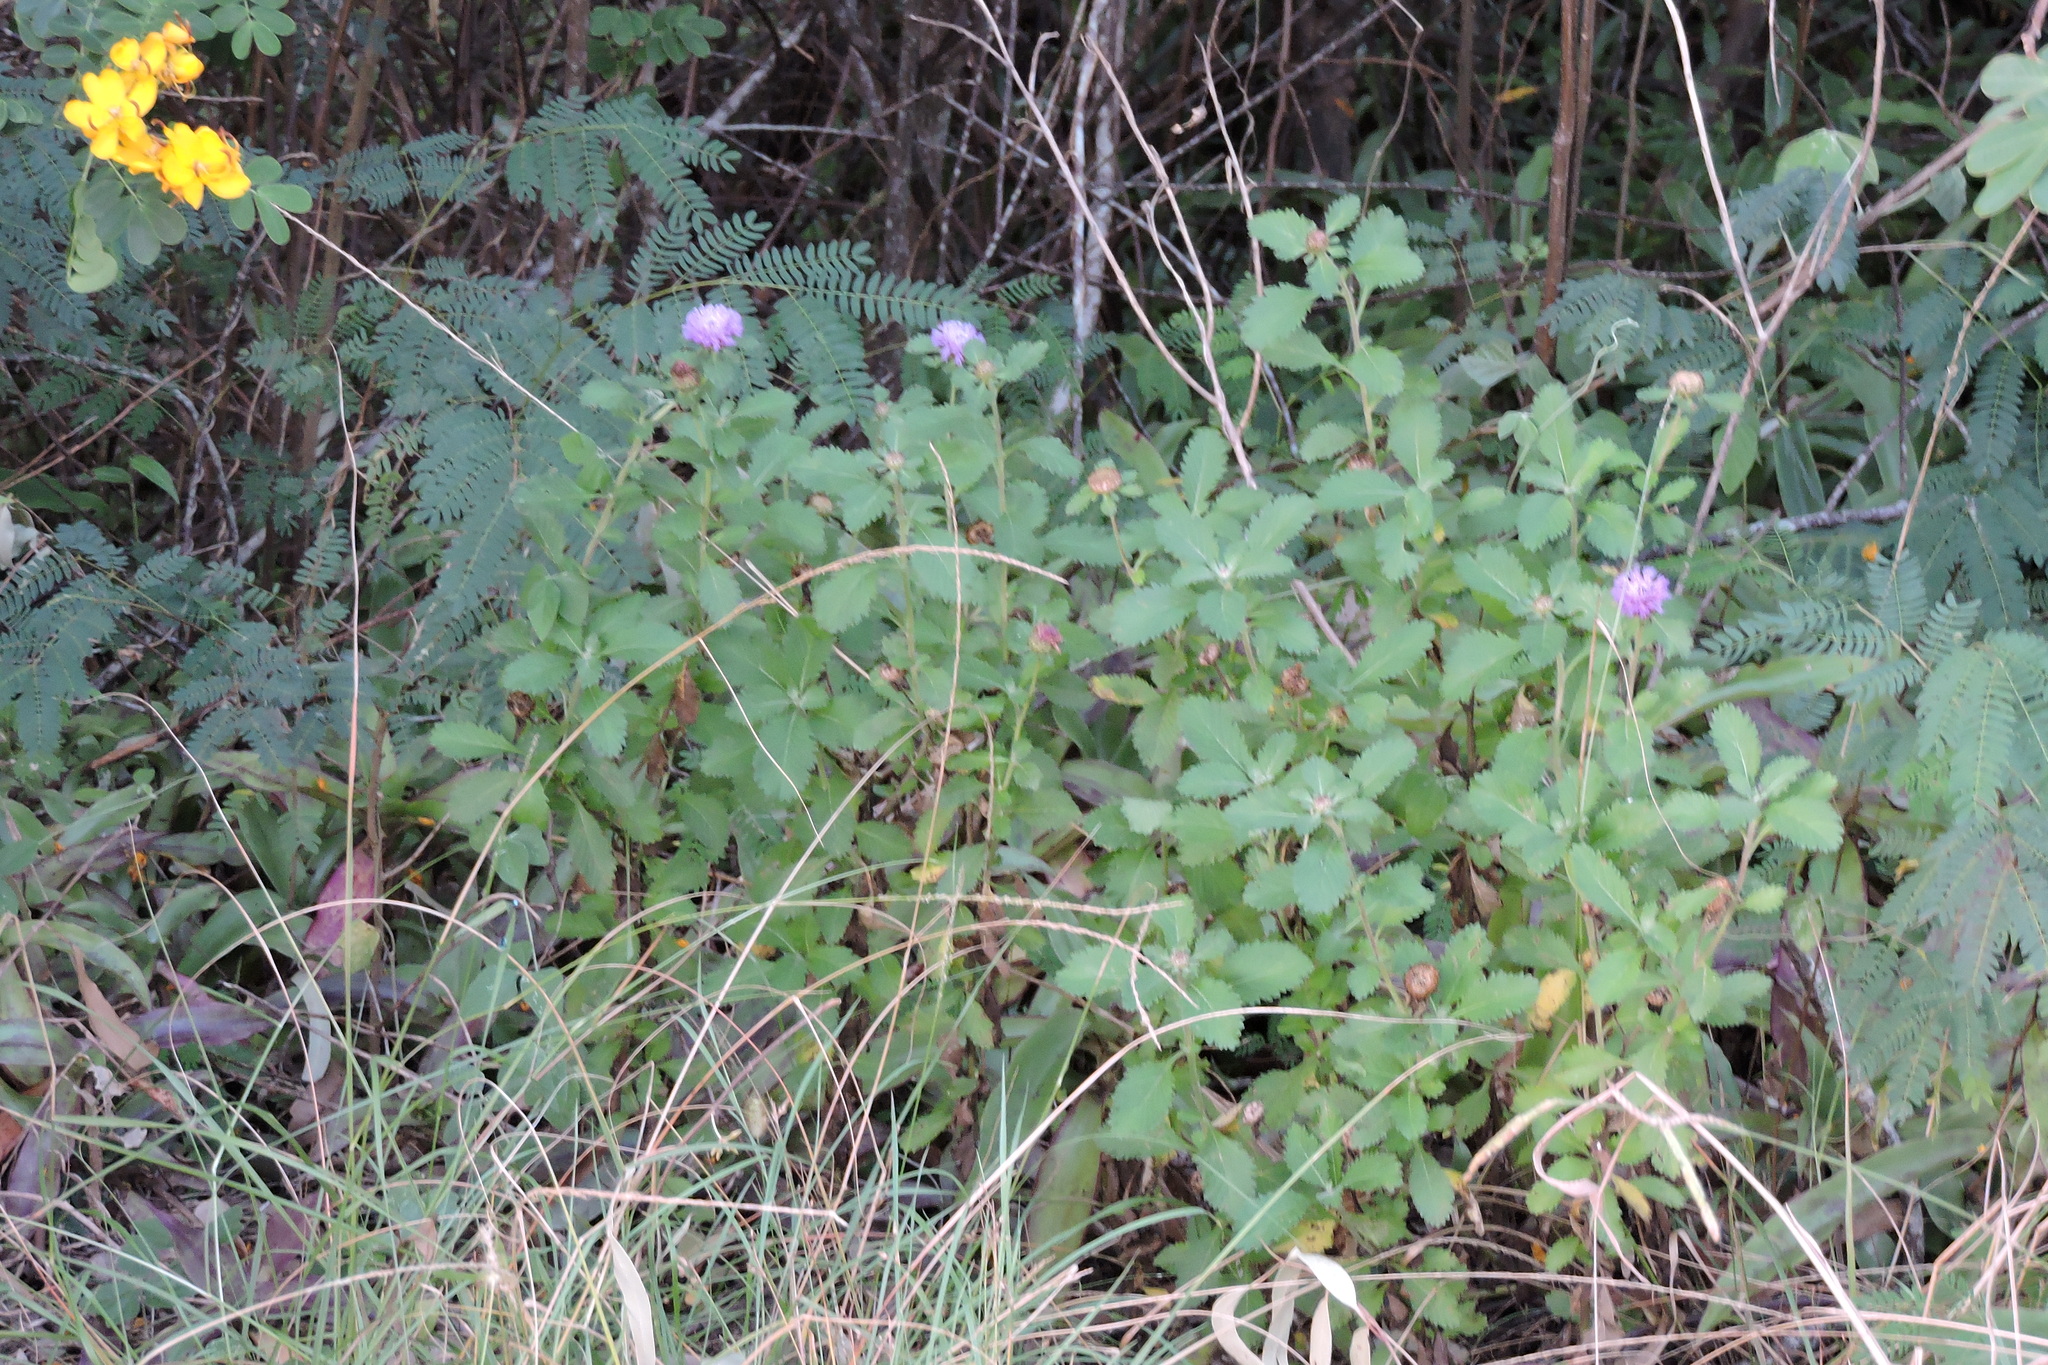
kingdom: Plantae
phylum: Tracheophyta
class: Magnoliopsida
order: Asterales
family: Asteraceae
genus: Centratherum
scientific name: Centratherum punctatum
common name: Larkdaisy
